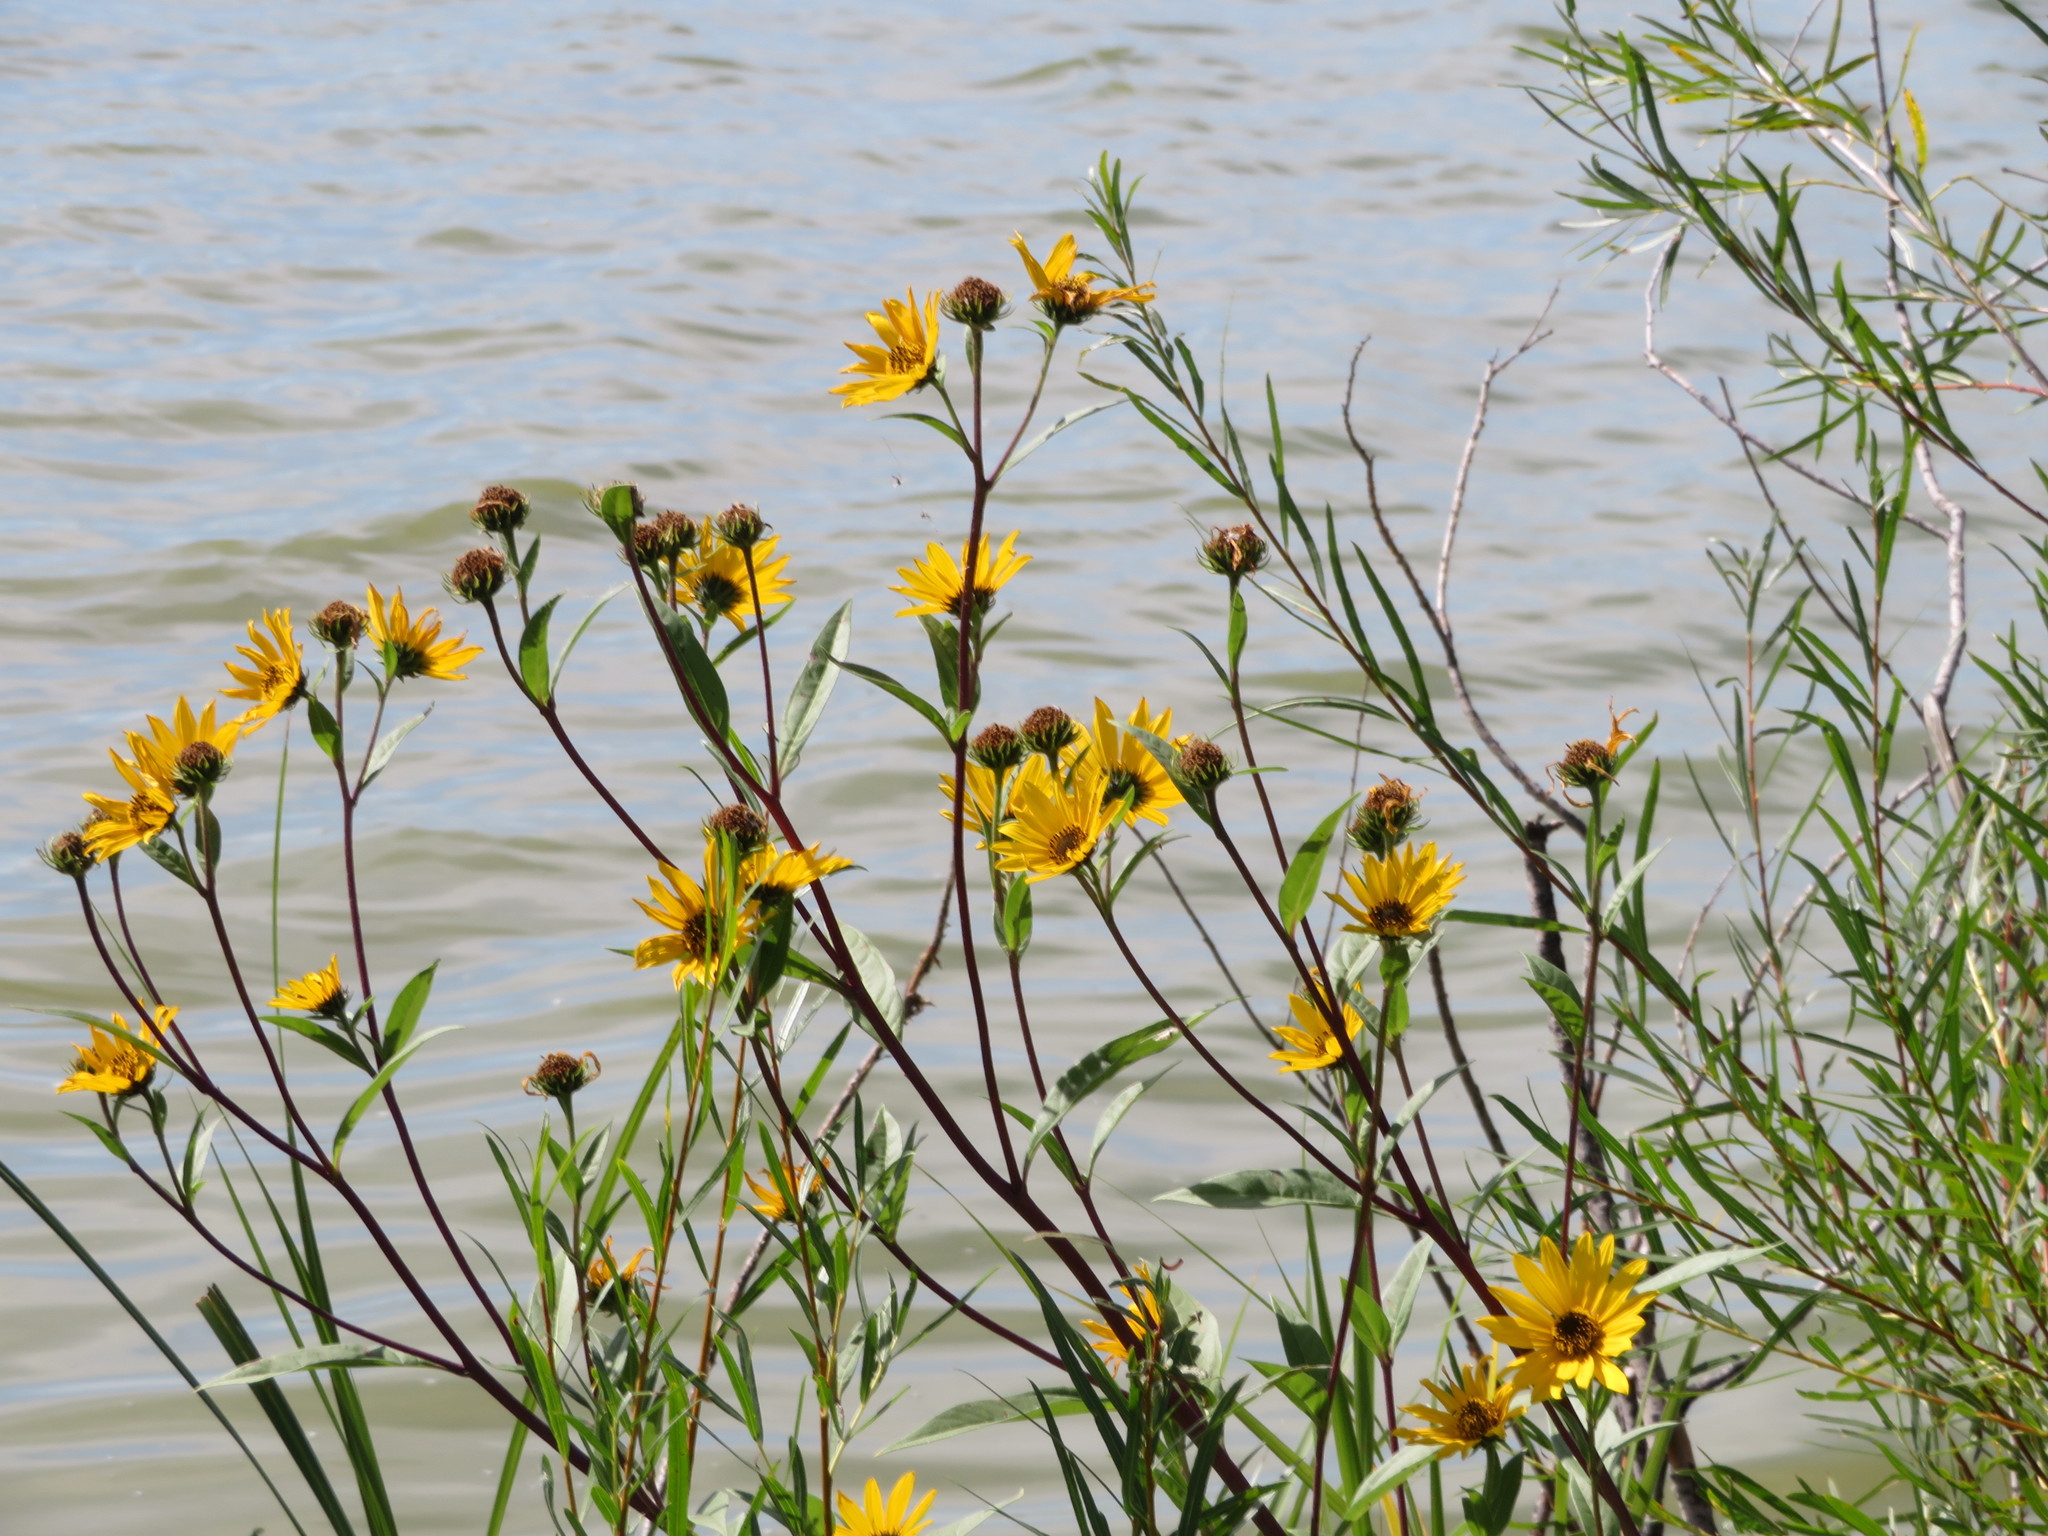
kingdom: Plantae
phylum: Tracheophyta
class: Magnoliopsida
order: Asterales
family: Asteraceae
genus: Helianthus
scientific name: Helianthus maximiliani
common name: Maximilian's sunflower
